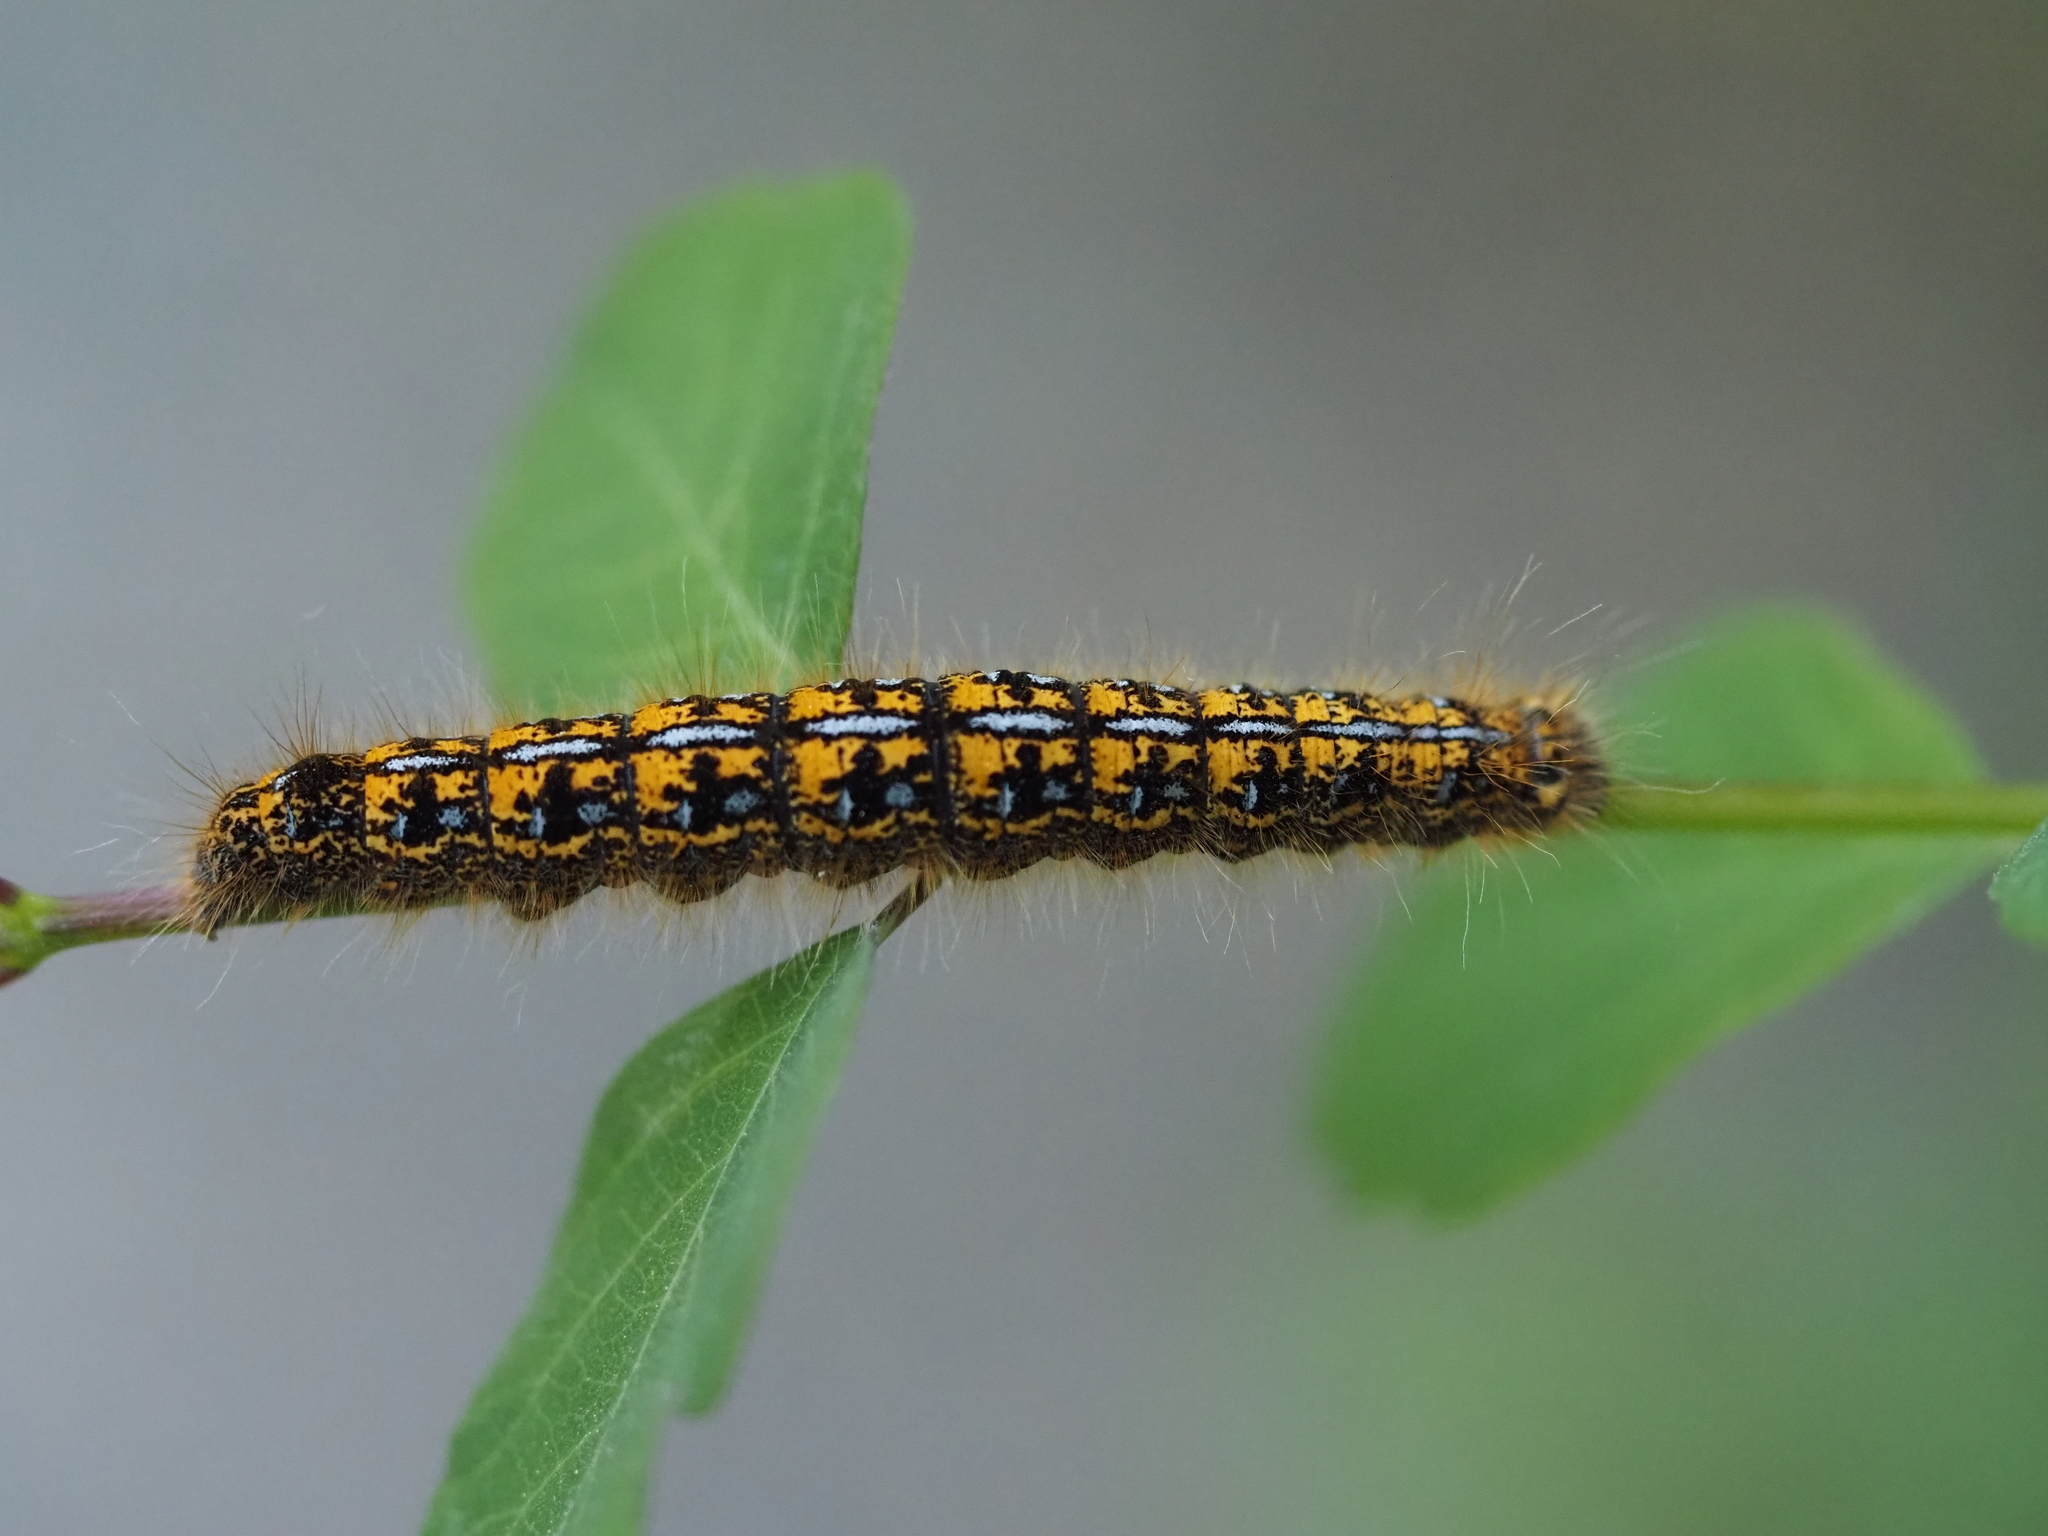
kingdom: Animalia
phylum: Arthropoda
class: Insecta
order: Lepidoptera
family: Lasiocampidae
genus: Malacosoma
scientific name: Malacosoma californica
